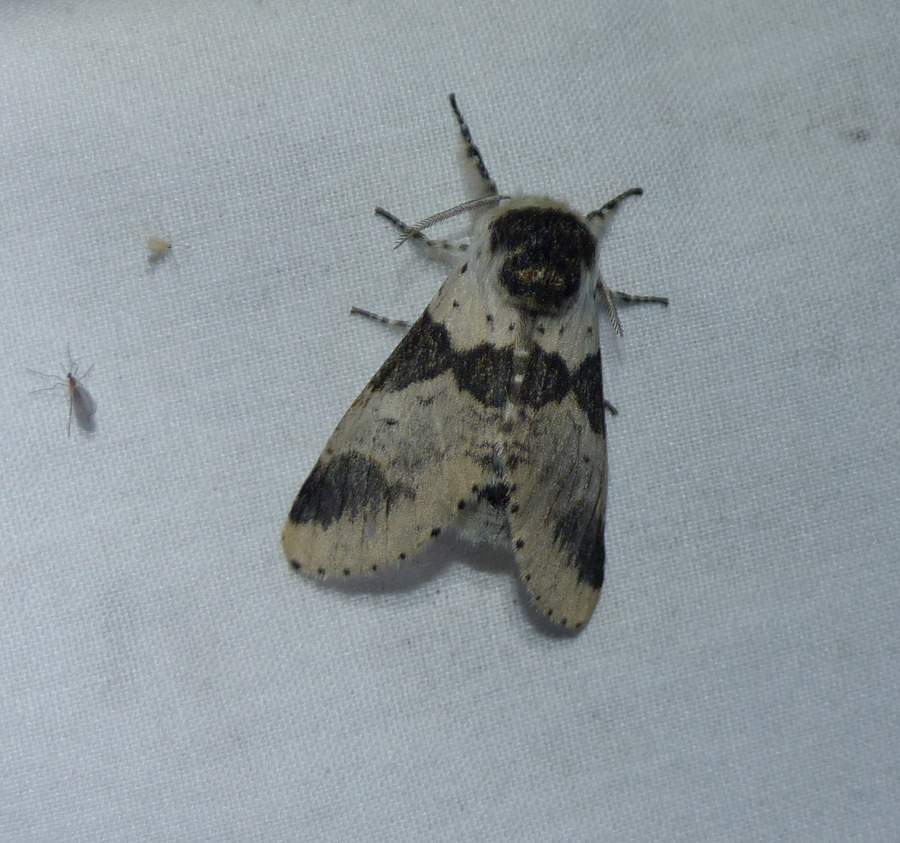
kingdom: Animalia
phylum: Arthropoda
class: Insecta
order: Lepidoptera
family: Notodontidae
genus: Furcula
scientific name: Furcula modesta
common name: Modest furcula moth
